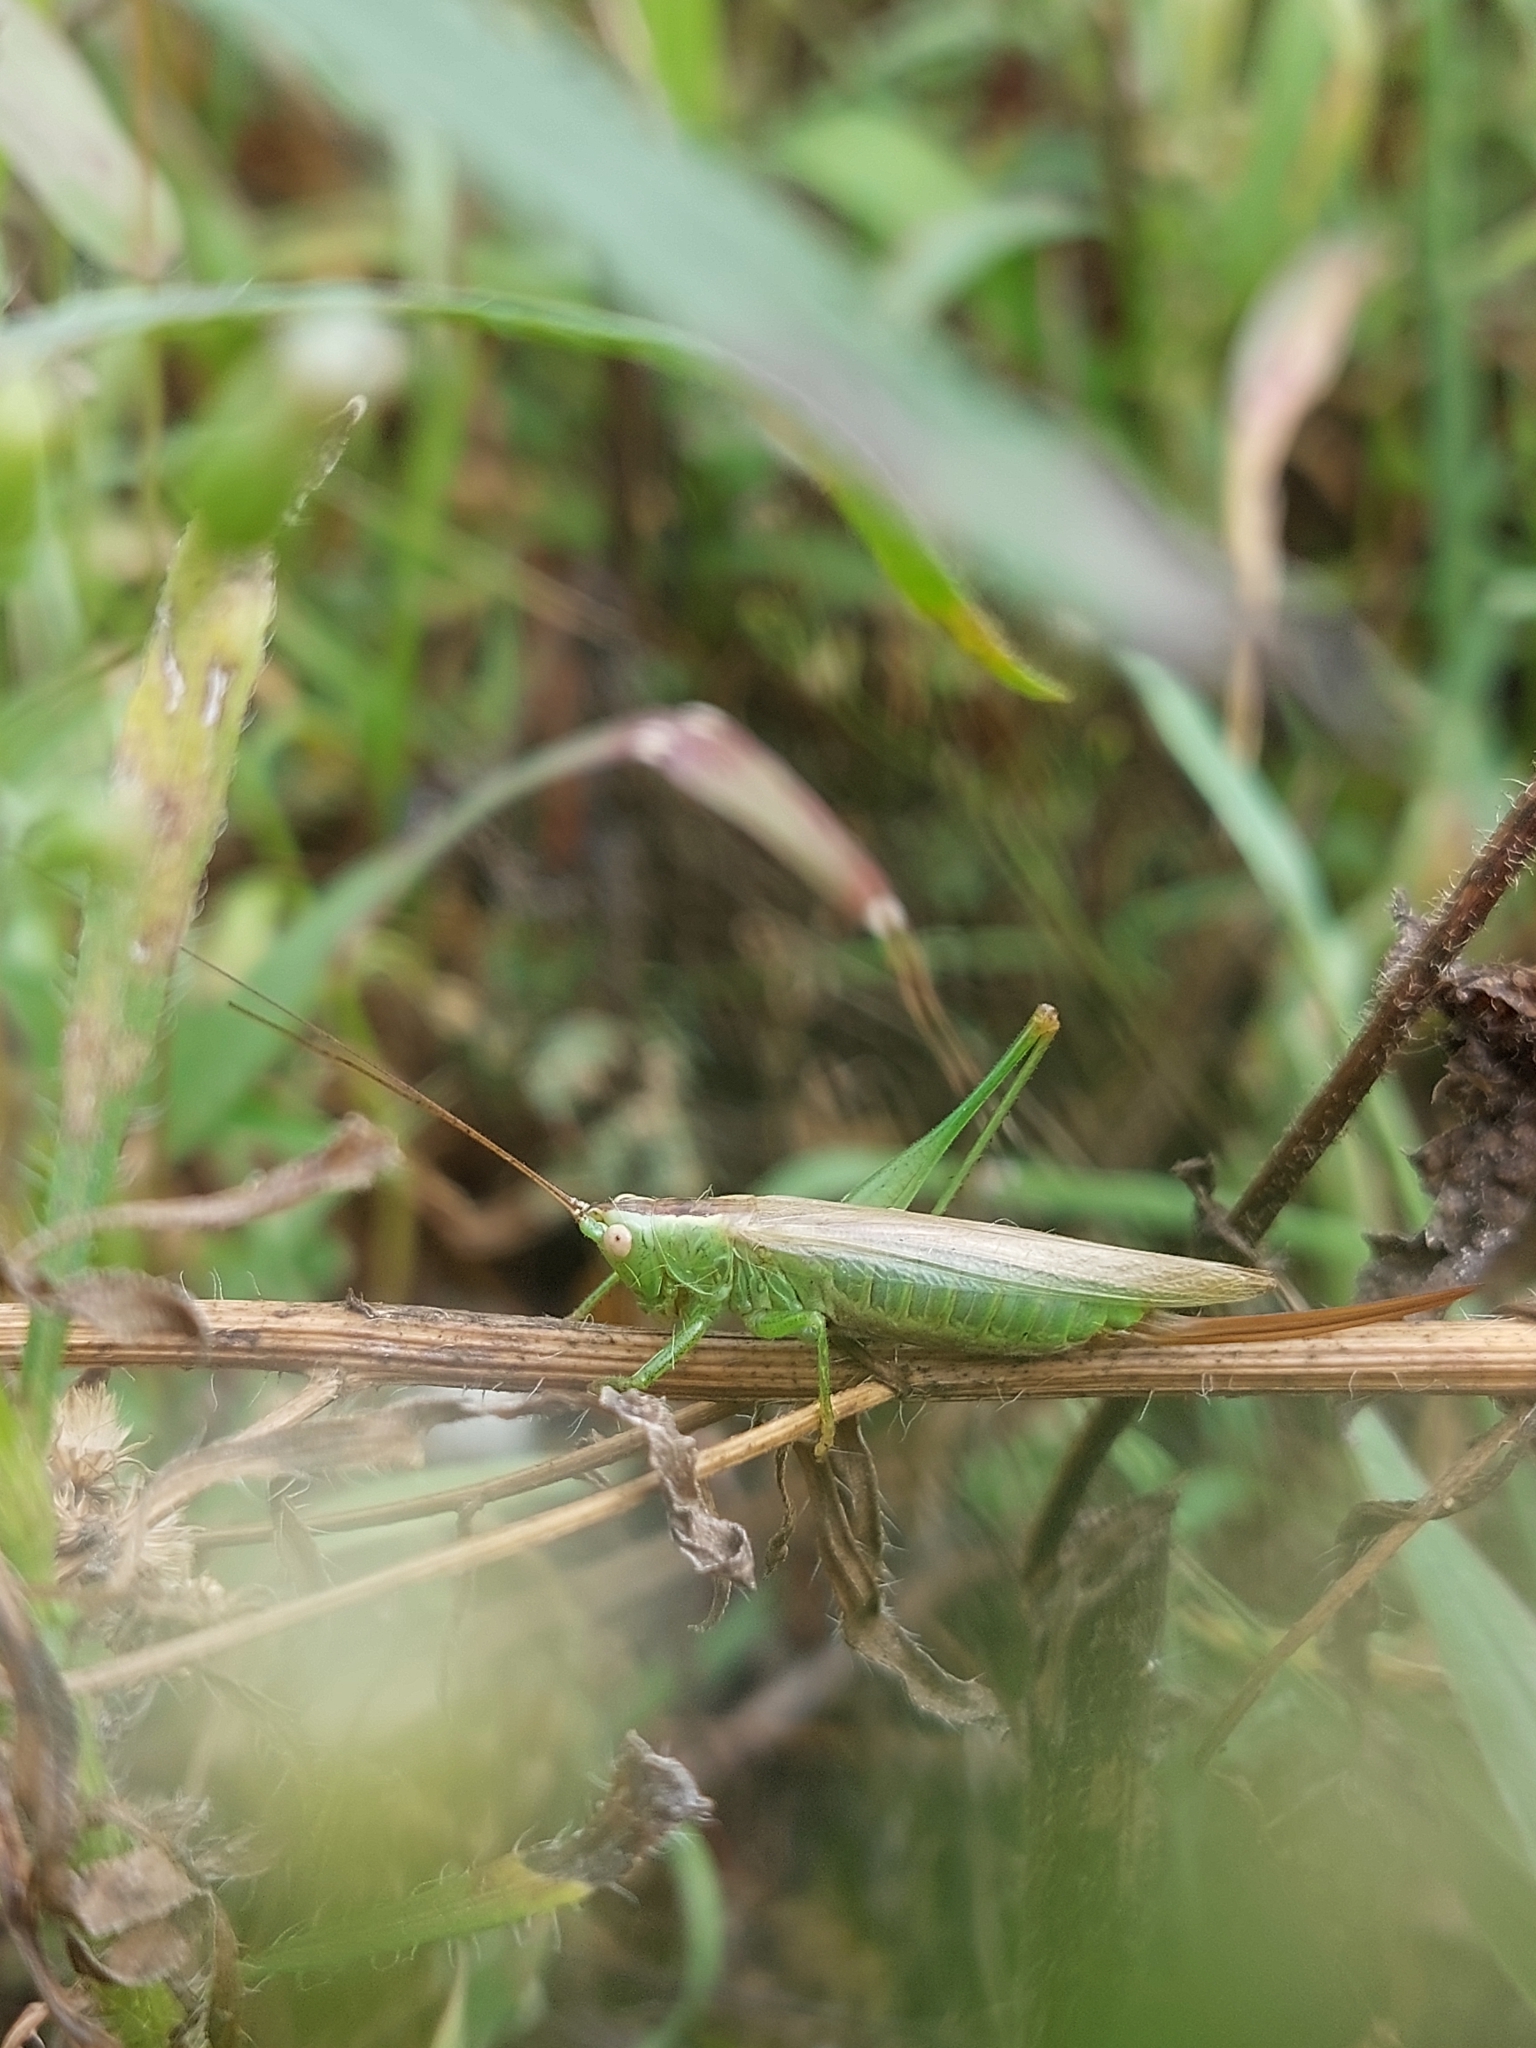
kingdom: Animalia
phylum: Arthropoda
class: Insecta
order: Orthoptera
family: Tettigoniidae
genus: Conocephalus
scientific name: Conocephalus fuscus
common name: Long-winged conehead
